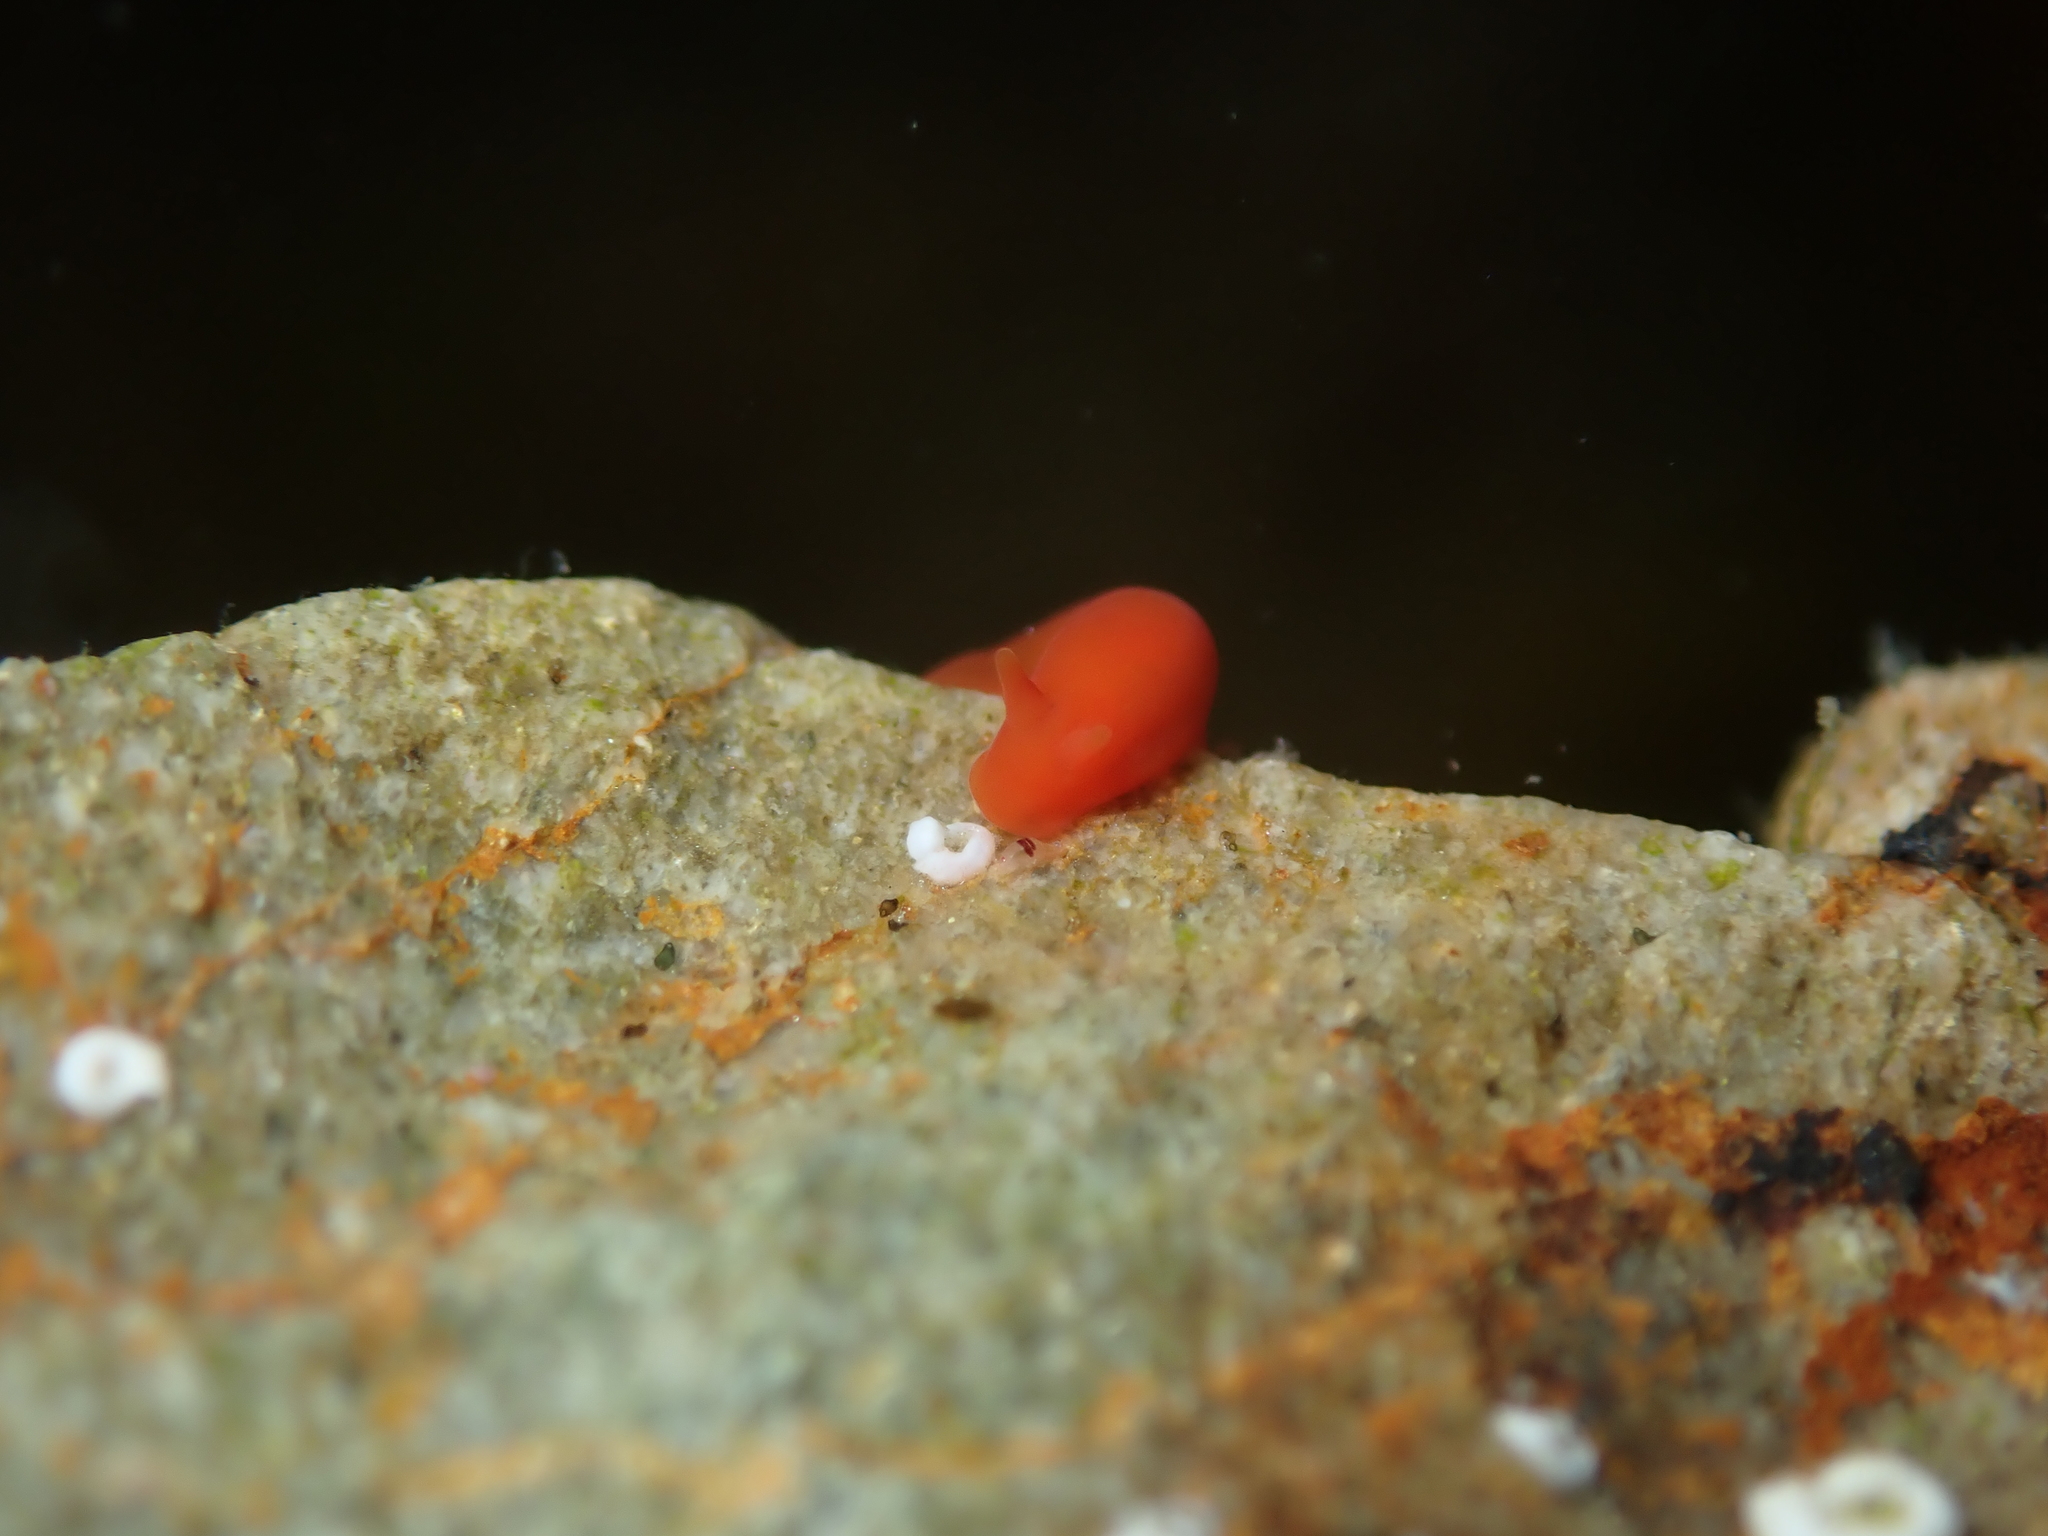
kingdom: Animalia
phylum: Mollusca
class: Gastropoda
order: Nudibranchia
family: Okadaiidae
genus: Vayssierea
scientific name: Vayssierea cinnabarea
